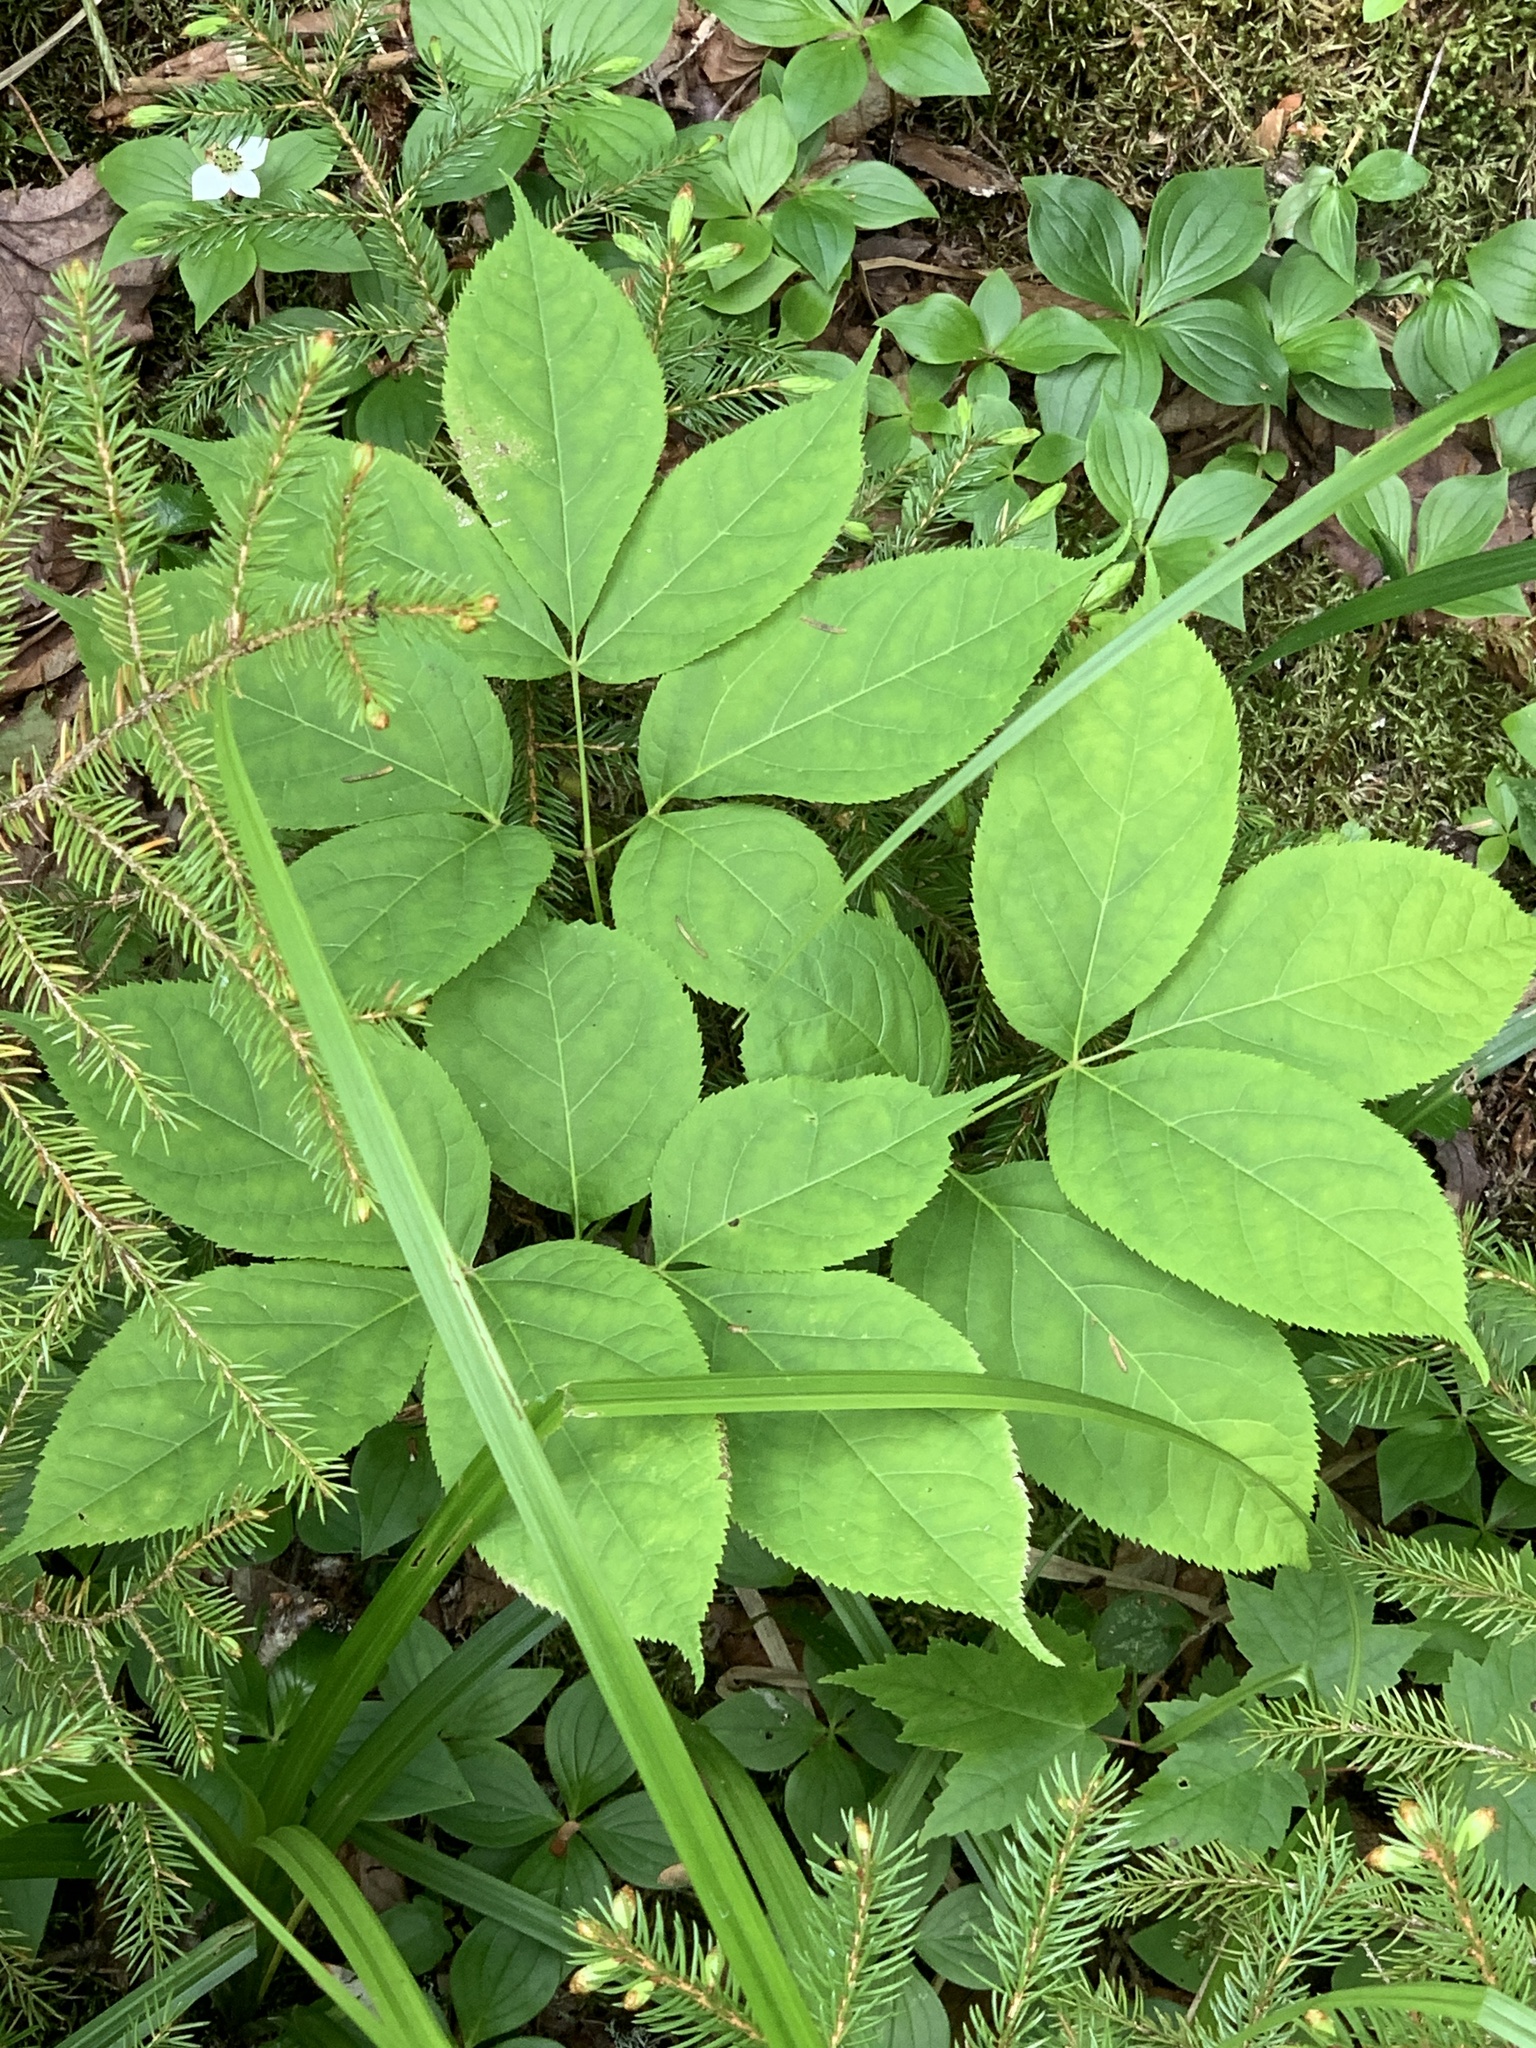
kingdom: Plantae
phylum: Tracheophyta
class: Magnoliopsida
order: Apiales
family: Araliaceae
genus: Aralia
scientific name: Aralia nudicaulis
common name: Wild sarsaparilla
